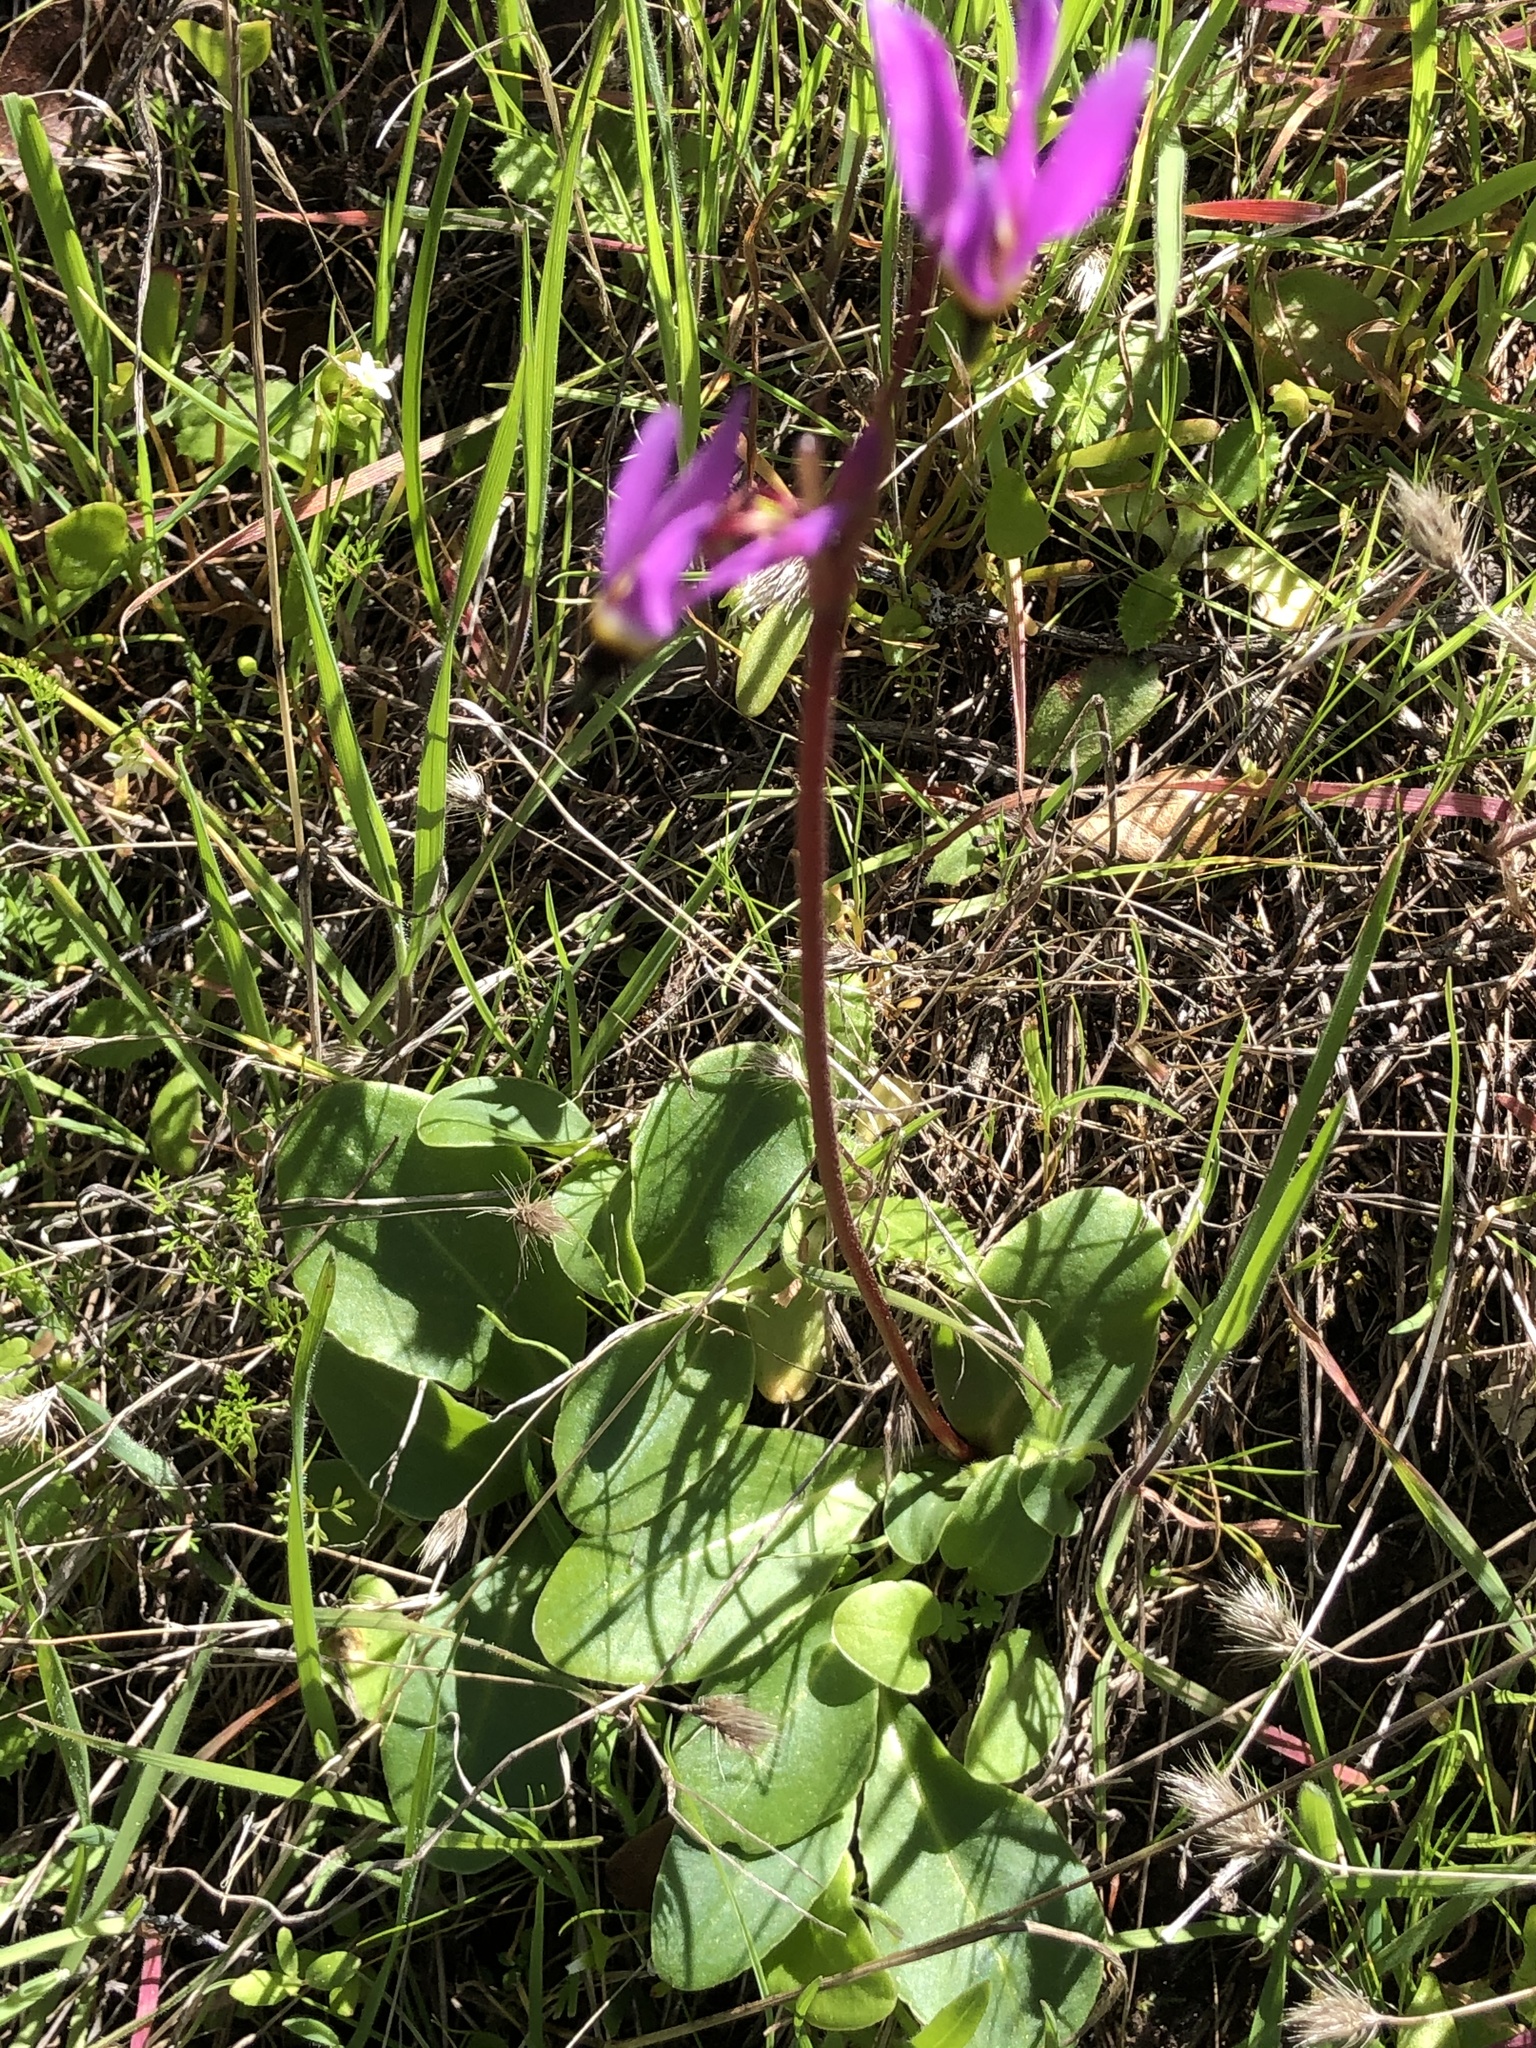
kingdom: Plantae
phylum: Tracheophyta
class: Magnoliopsida
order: Ericales
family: Primulaceae
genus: Dodecatheon
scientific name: Dodecatheon hendersonii
